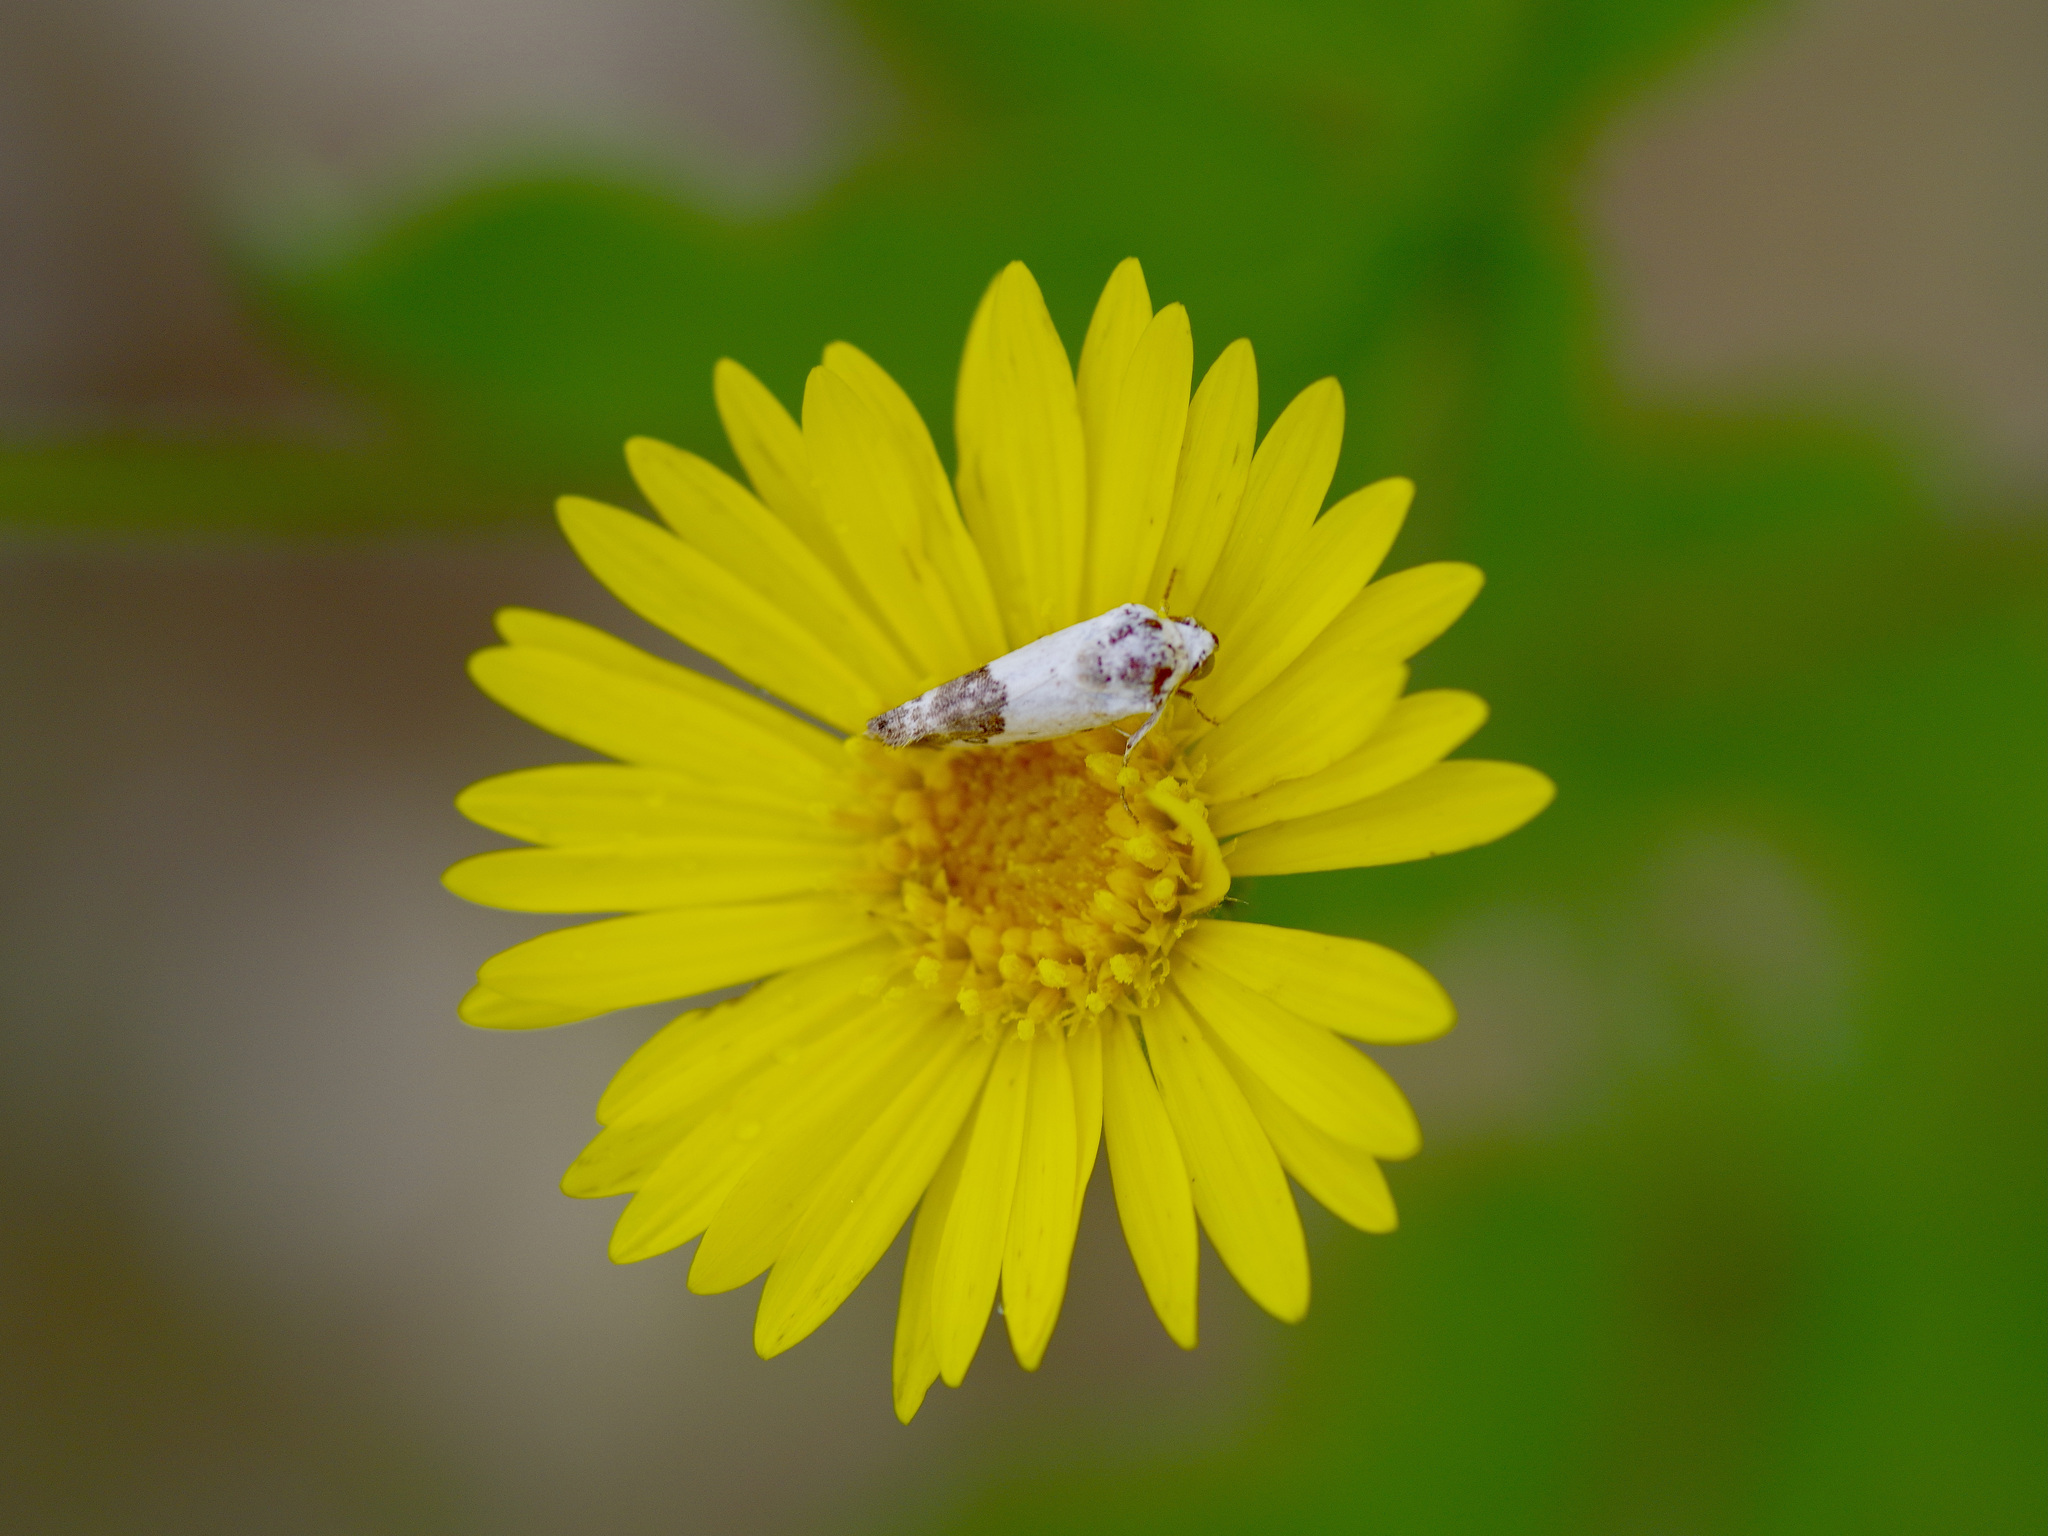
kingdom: Animalia
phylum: Arthropoda
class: Insecta
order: Lepidoptera
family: Noctuidae
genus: Acontia
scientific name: Acontia phecolisca
